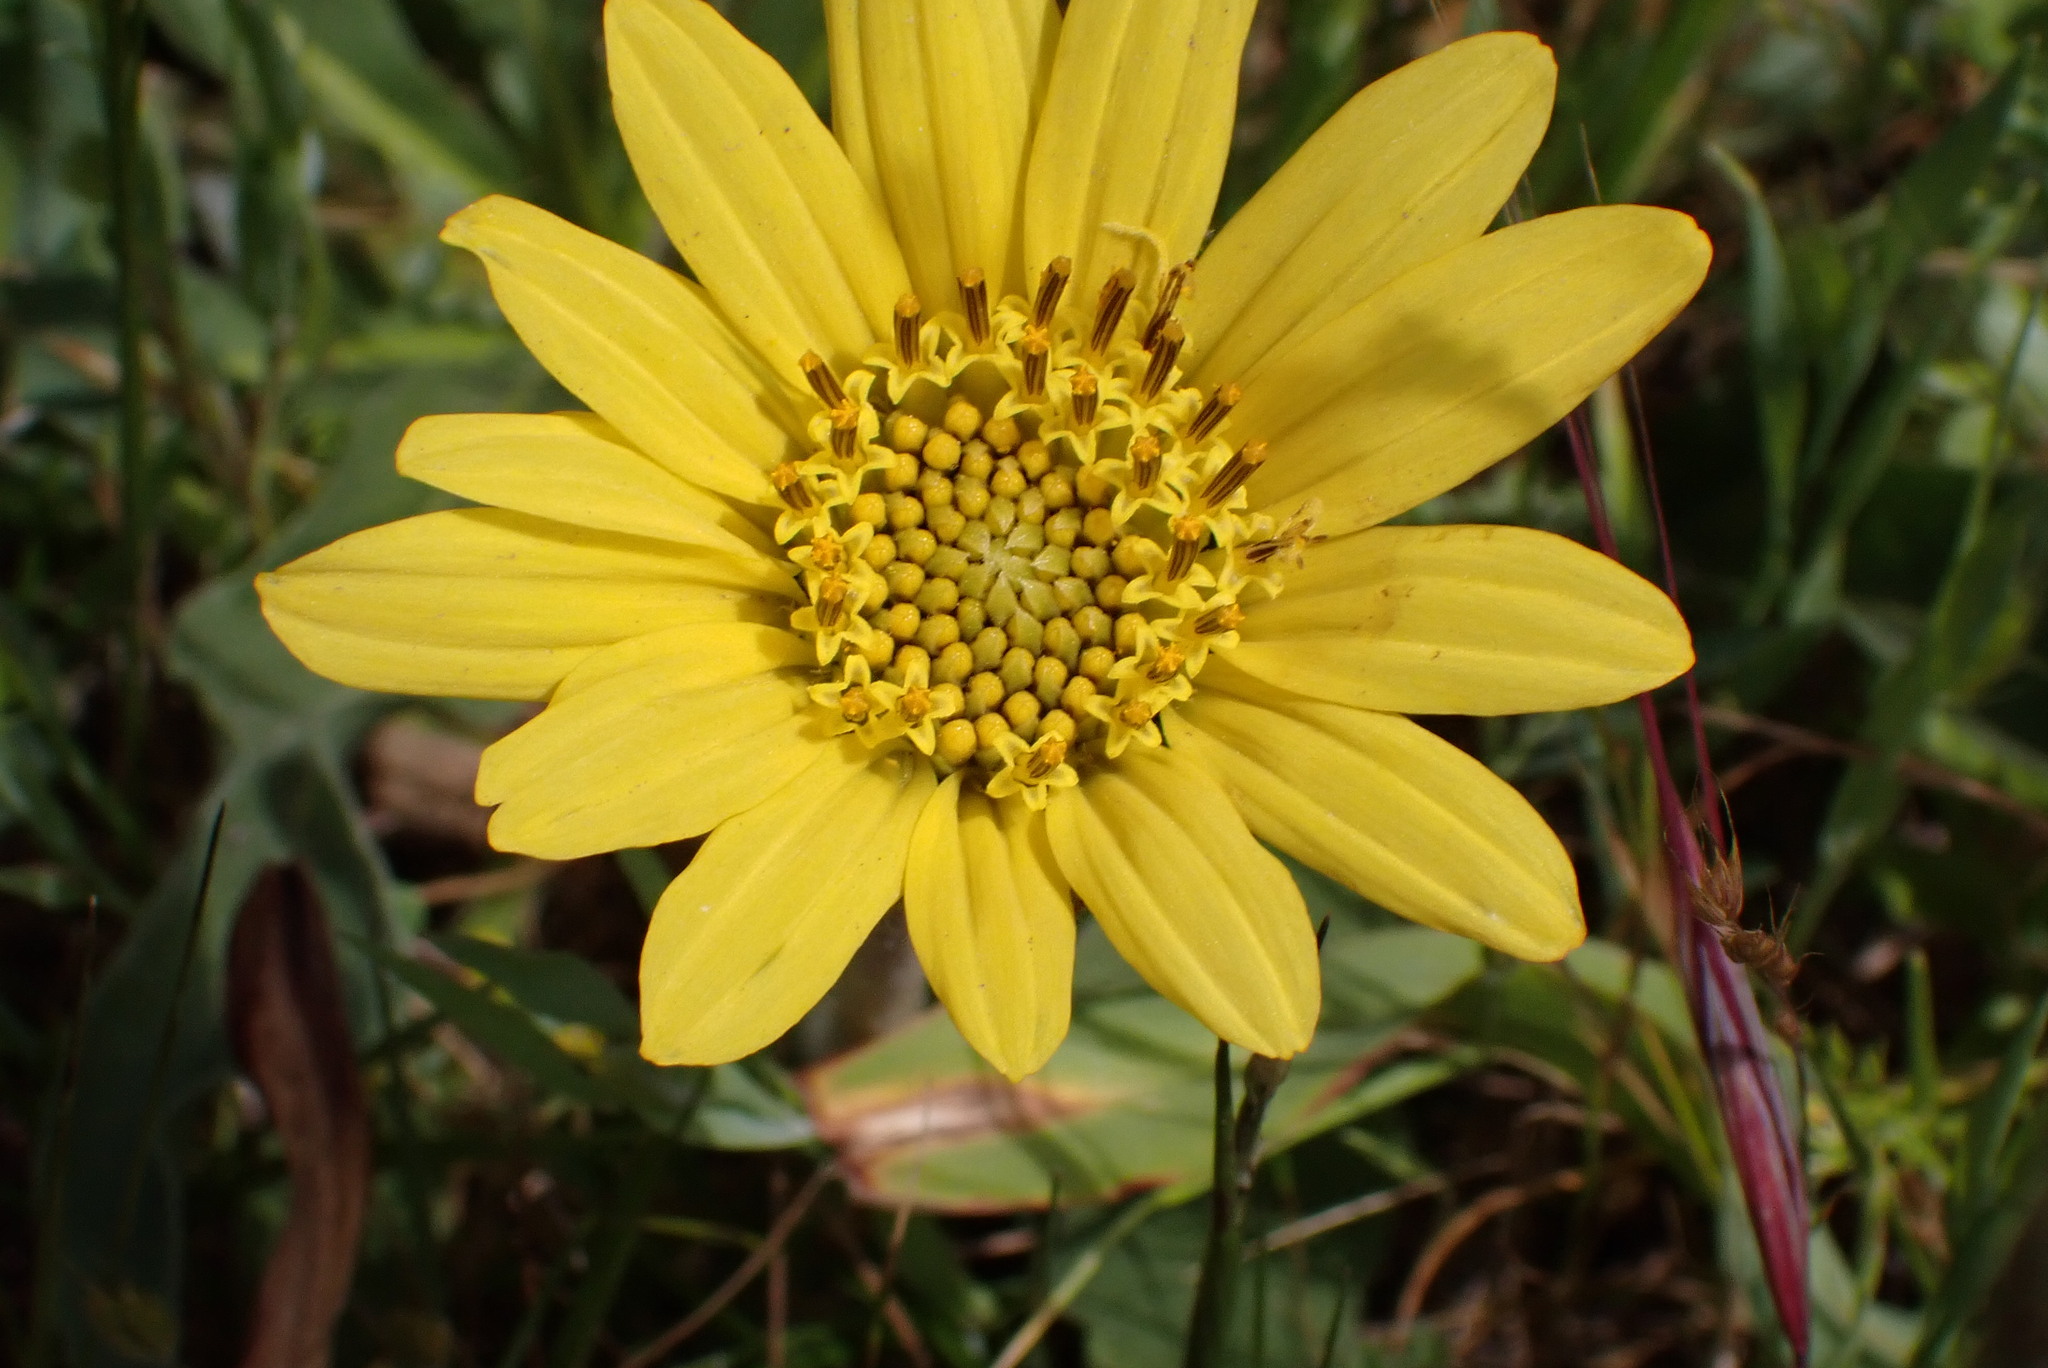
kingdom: Plantae
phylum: Tracheophyta
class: Magnoliopsida
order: Asterales
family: Asteraceae
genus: Wyethia
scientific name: Wyethia angustifolia
